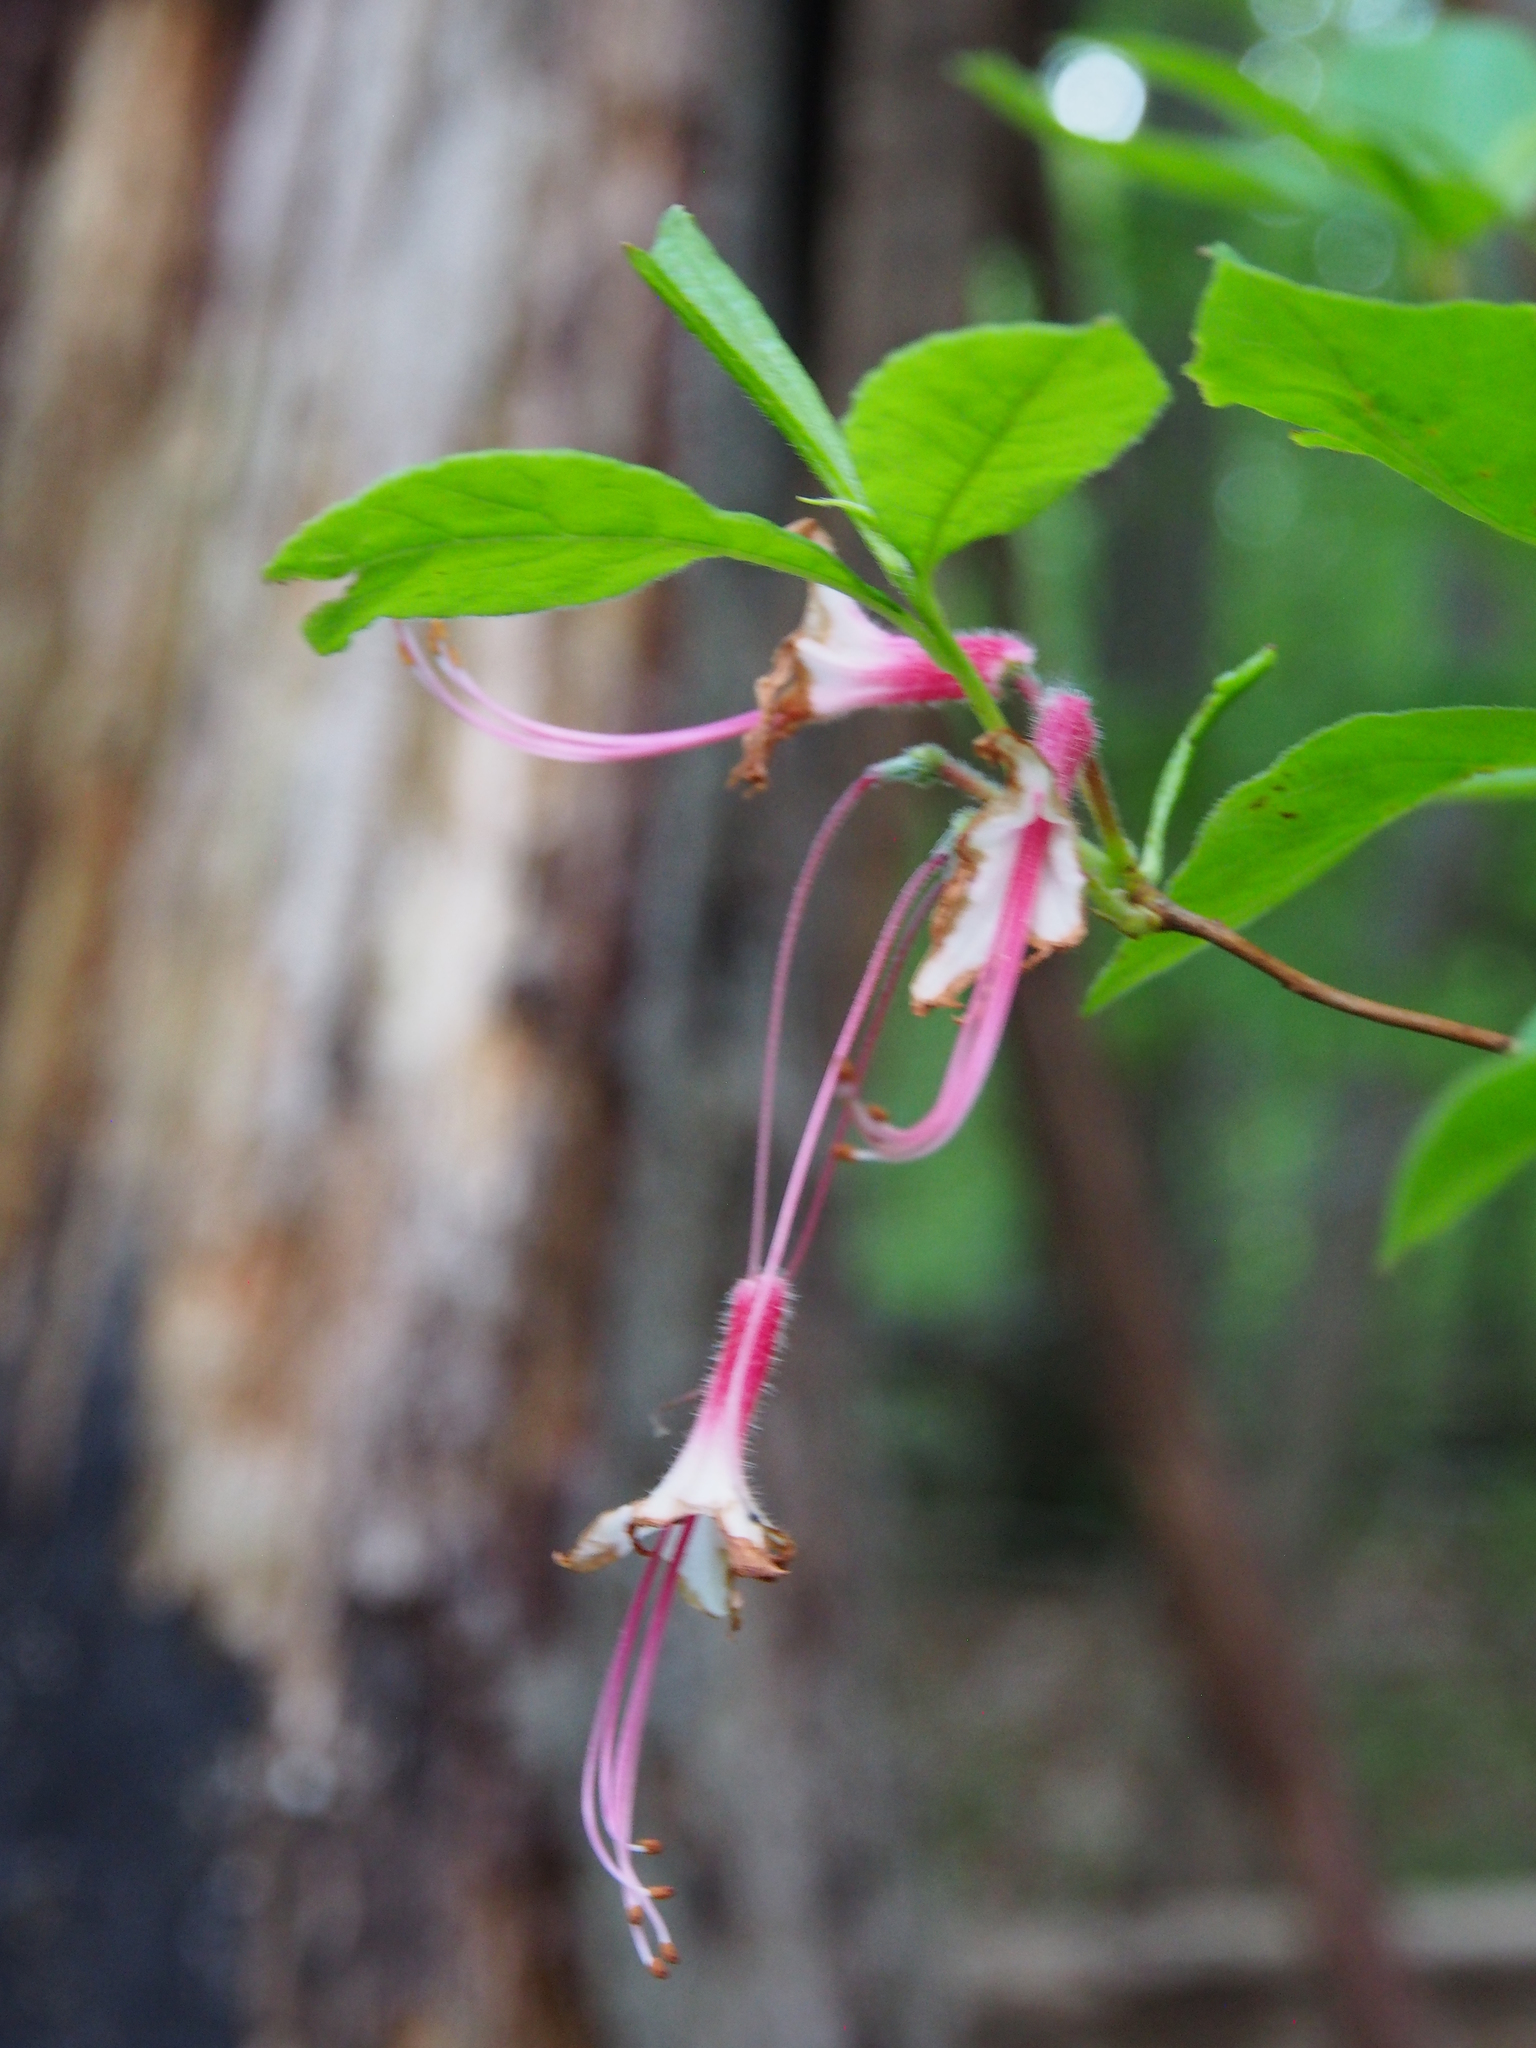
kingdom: Plantae
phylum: Tracheophyta
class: Magnoliopsida
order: Ericales
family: Ericaceae
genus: Rhododendron
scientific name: Rhododendron periclymenoides
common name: Election-pink
